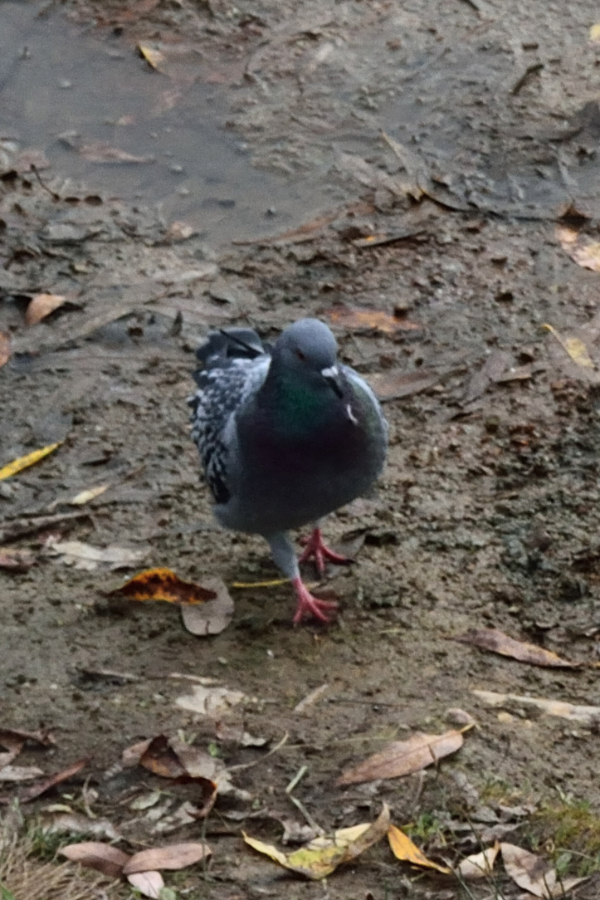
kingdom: Animalia
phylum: Chordata
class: Aves
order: Columbiformes
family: Columbidae
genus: Columba
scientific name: Columba livia
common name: Rock pigeon
